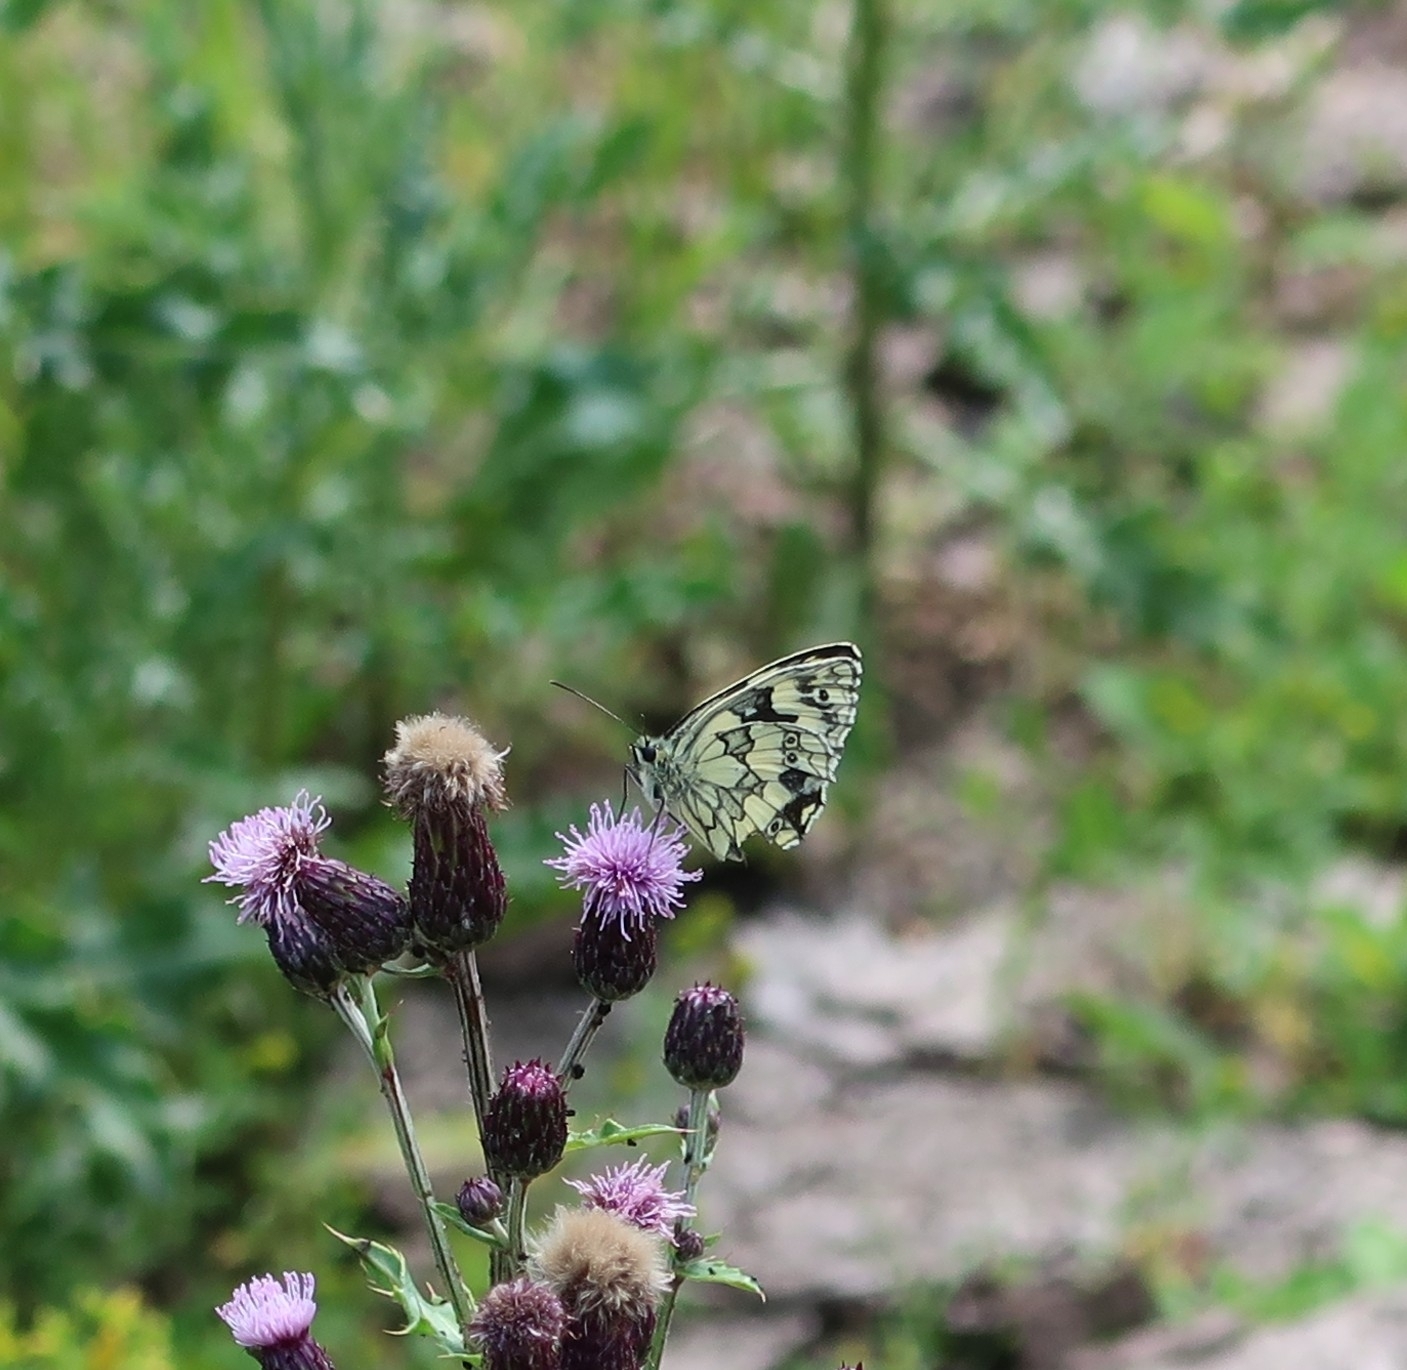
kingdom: Animalia
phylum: Arthropoda
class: Insecta
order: Lepidoptera
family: Nymphalidae
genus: Melanargia
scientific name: Melanargia galathea
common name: Marbled white
